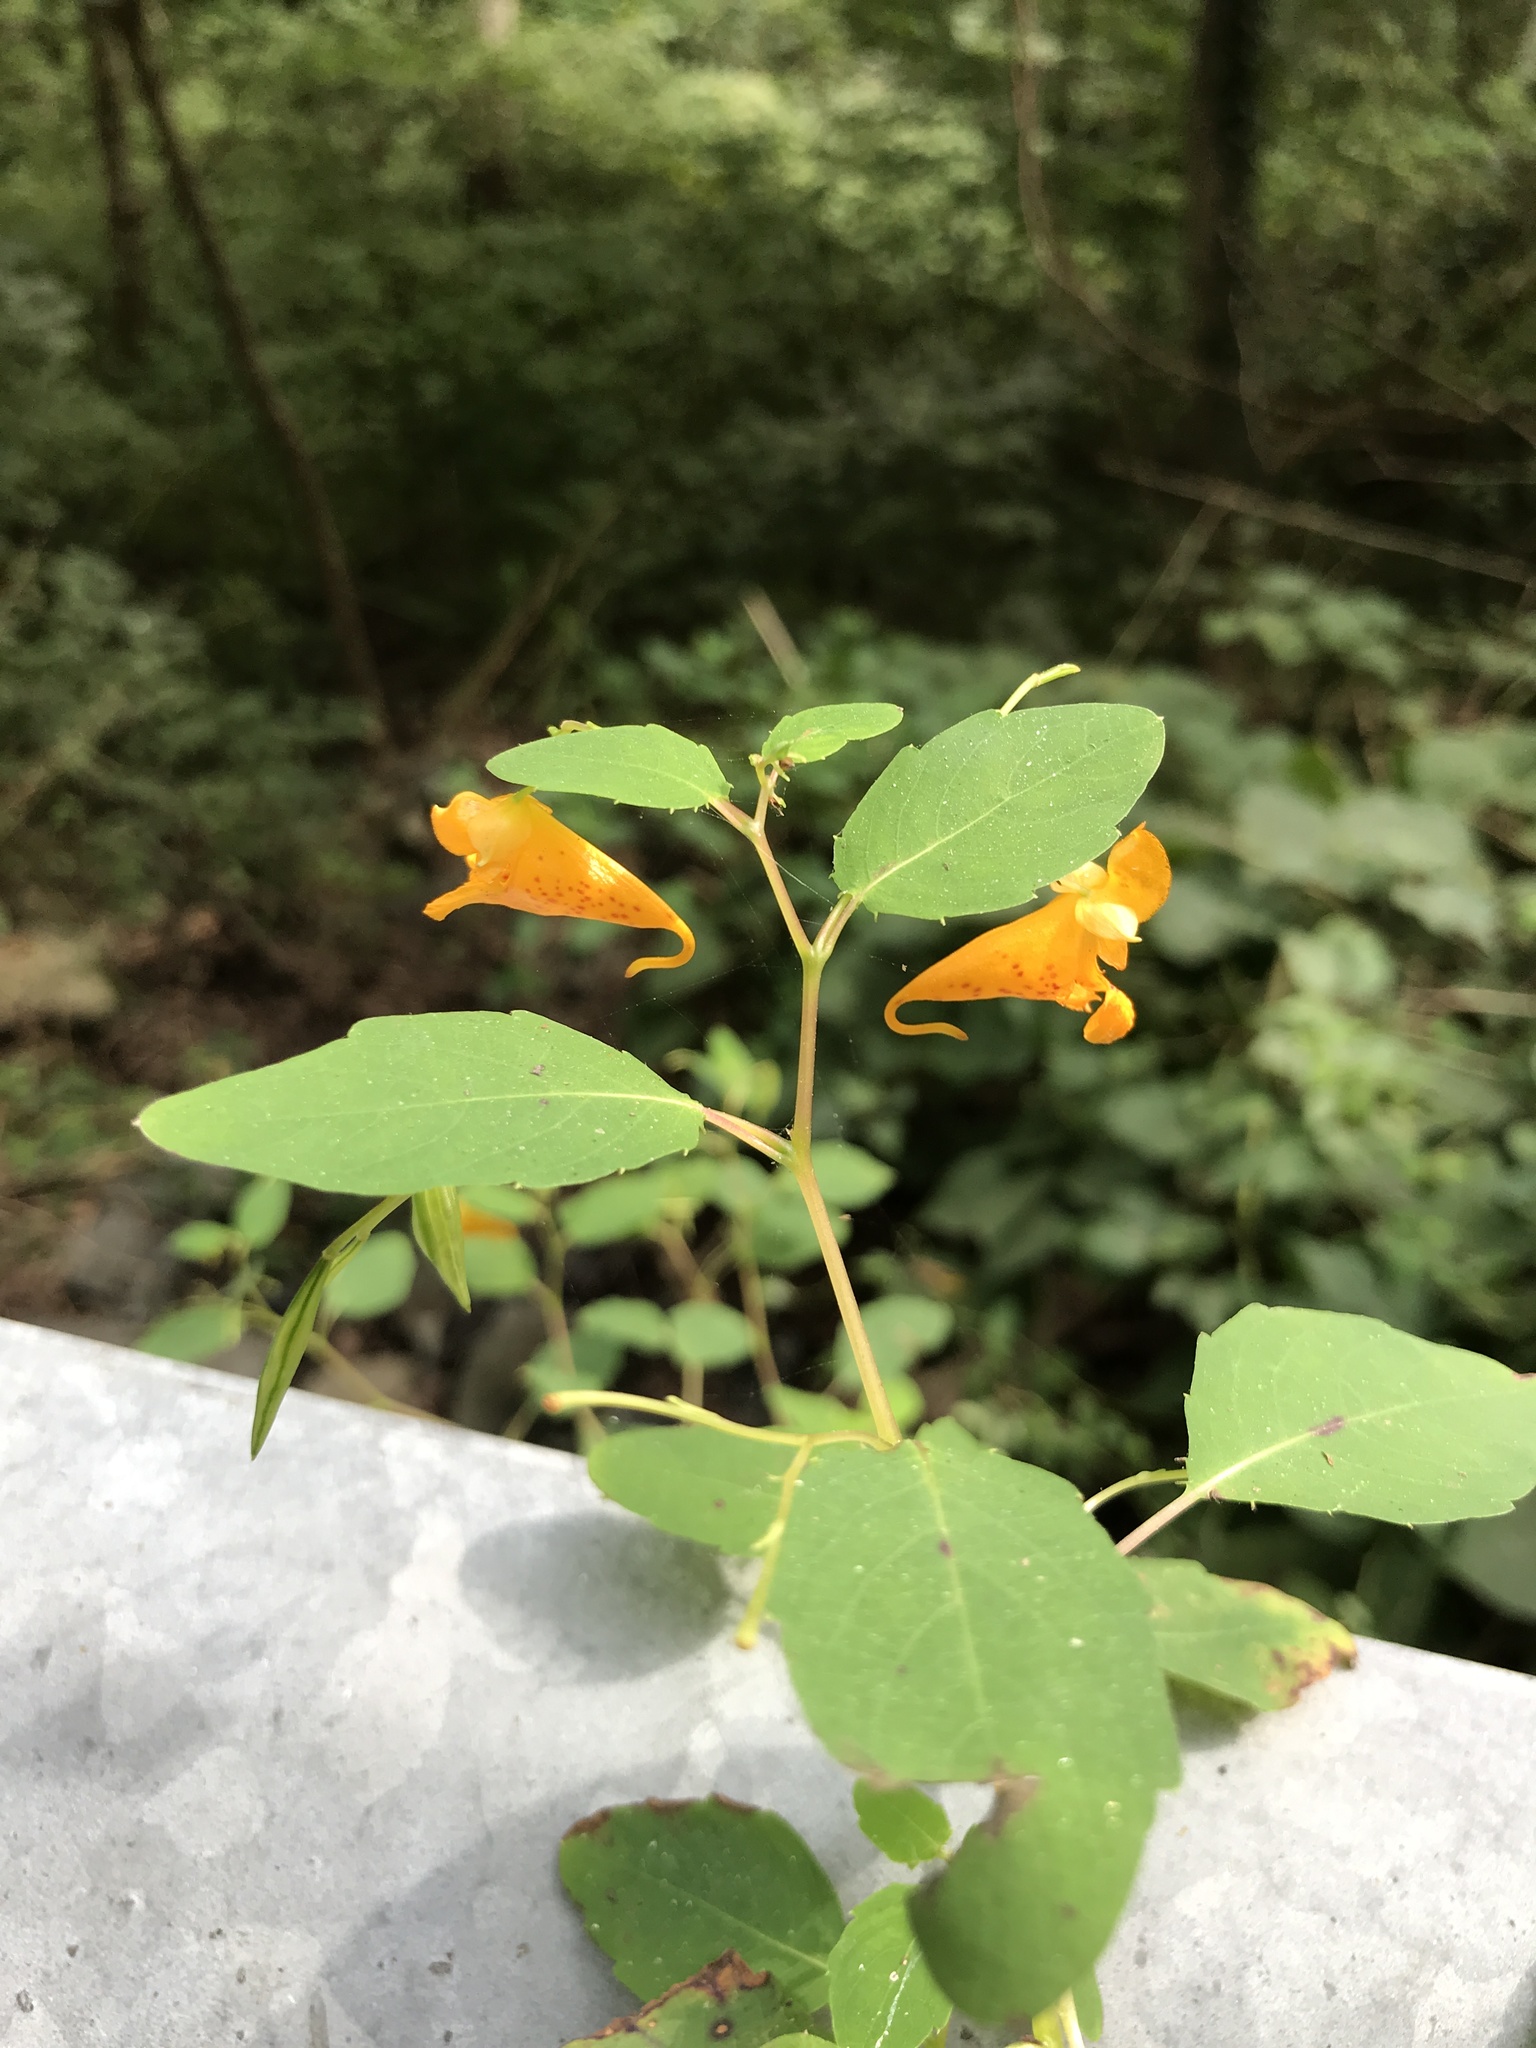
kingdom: Plantae
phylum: Tracheophyta
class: Magnoliopsida
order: Ericales
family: Balsaminaceae
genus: Impatiens
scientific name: Impatiens capensis
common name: Orange balsam
